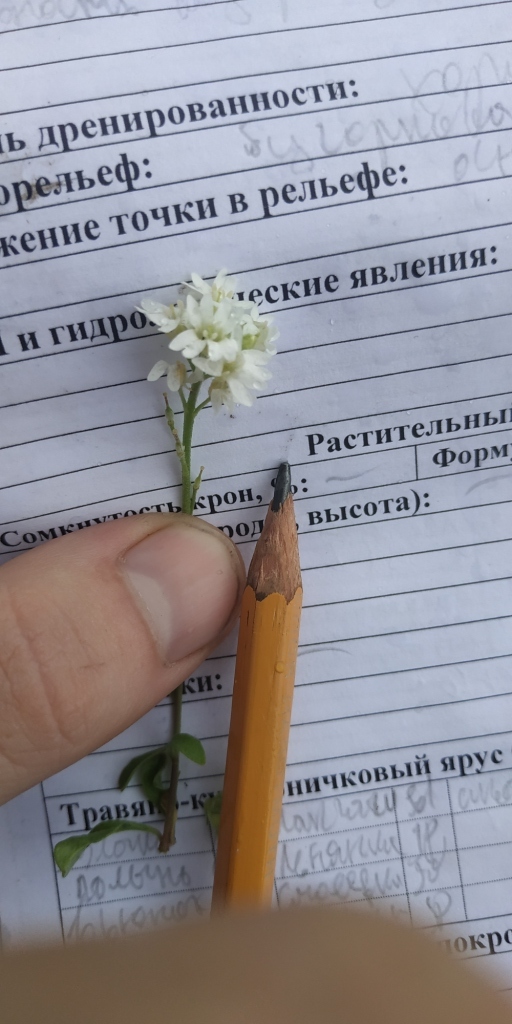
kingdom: Plantae
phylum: Tracheophyta
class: Magnoliopsida
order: Brassicales
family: Brassicaceae
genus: Berteroa
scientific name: Berteroa incana
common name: Hoary alison
